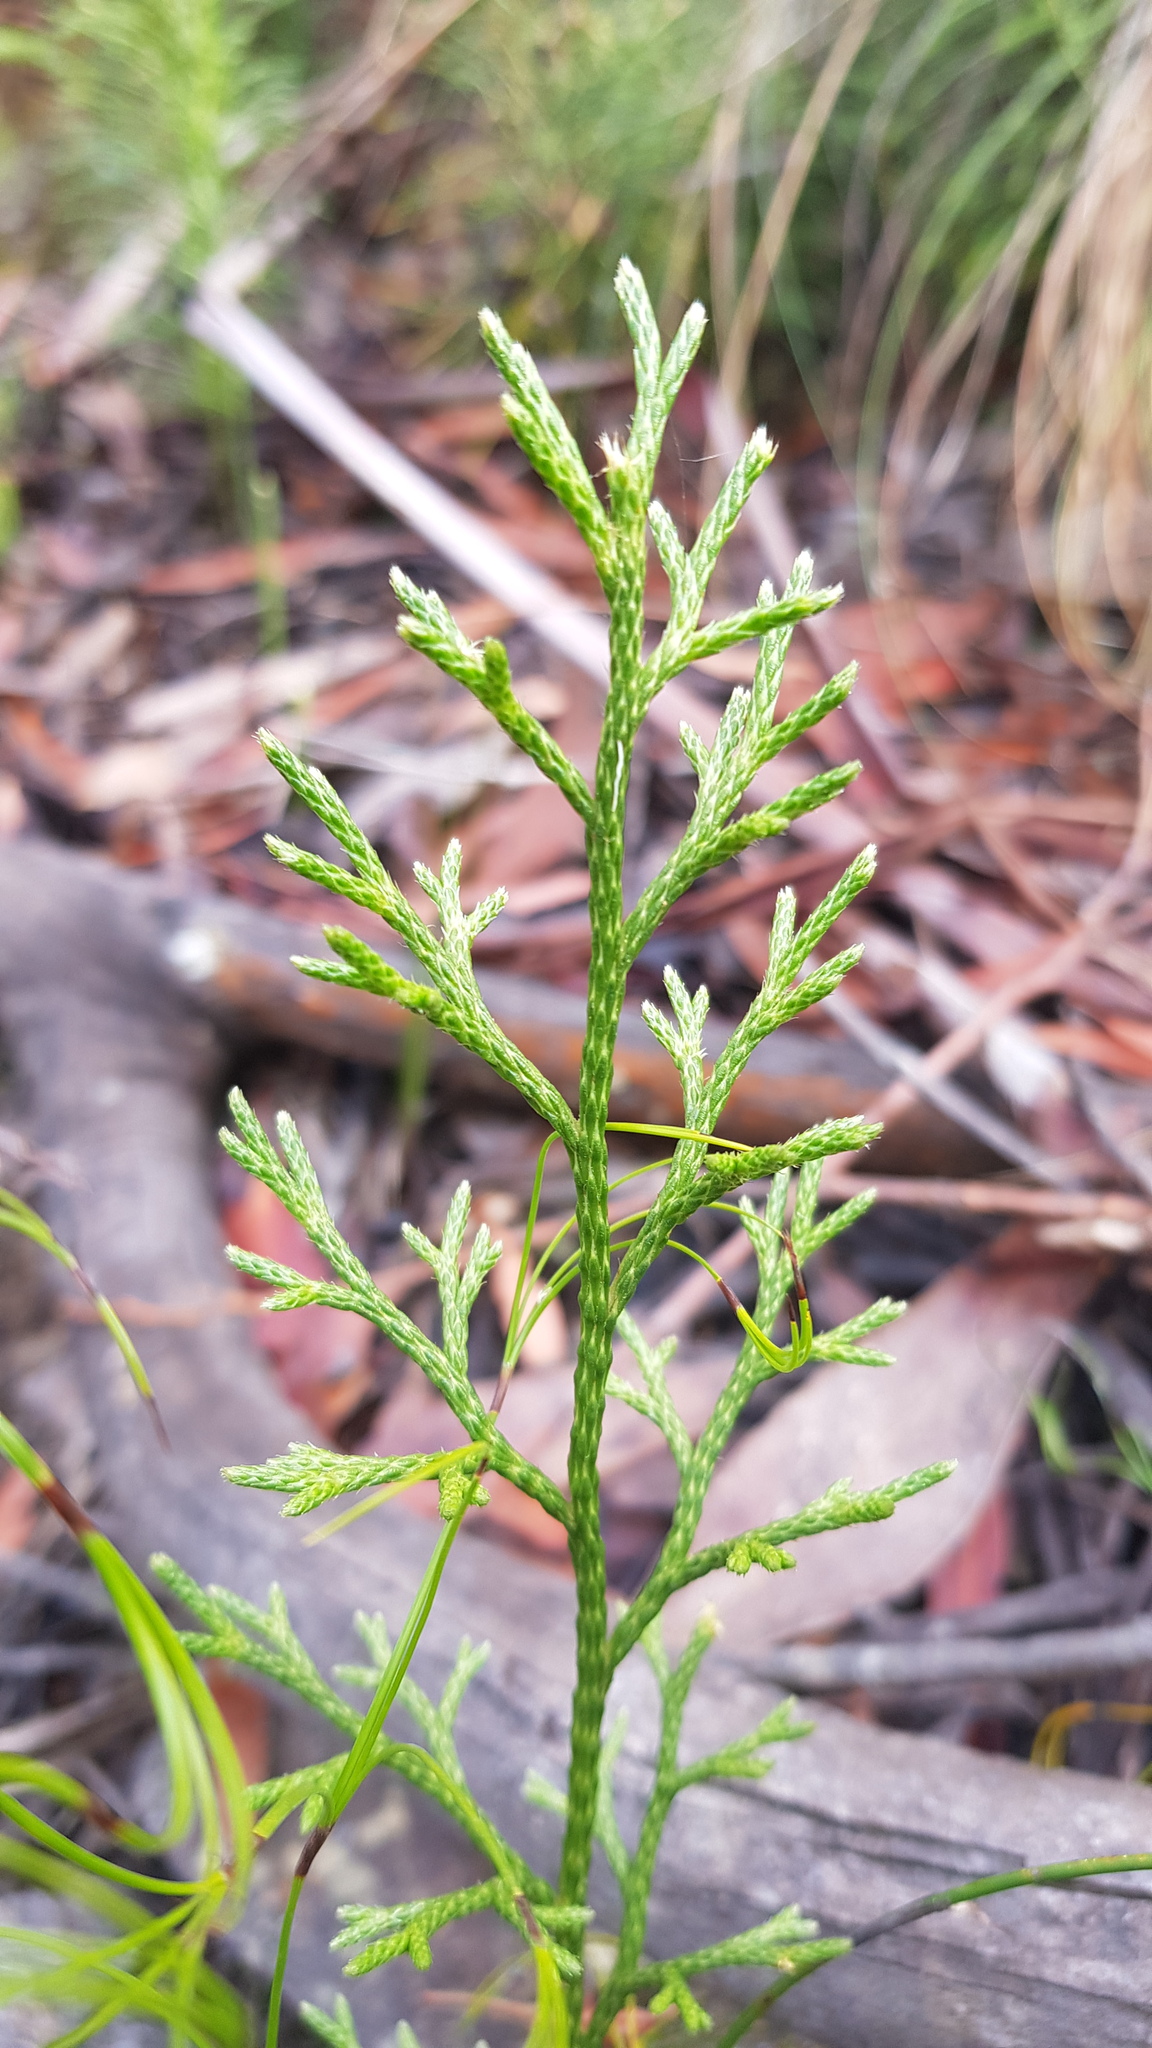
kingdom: Plantae
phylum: Tracheophyta
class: Lycopodiopsida
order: Lycopodiales
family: Lycopodiaceae
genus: Pseudolycopodium
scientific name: Pseudolycopodium densum
